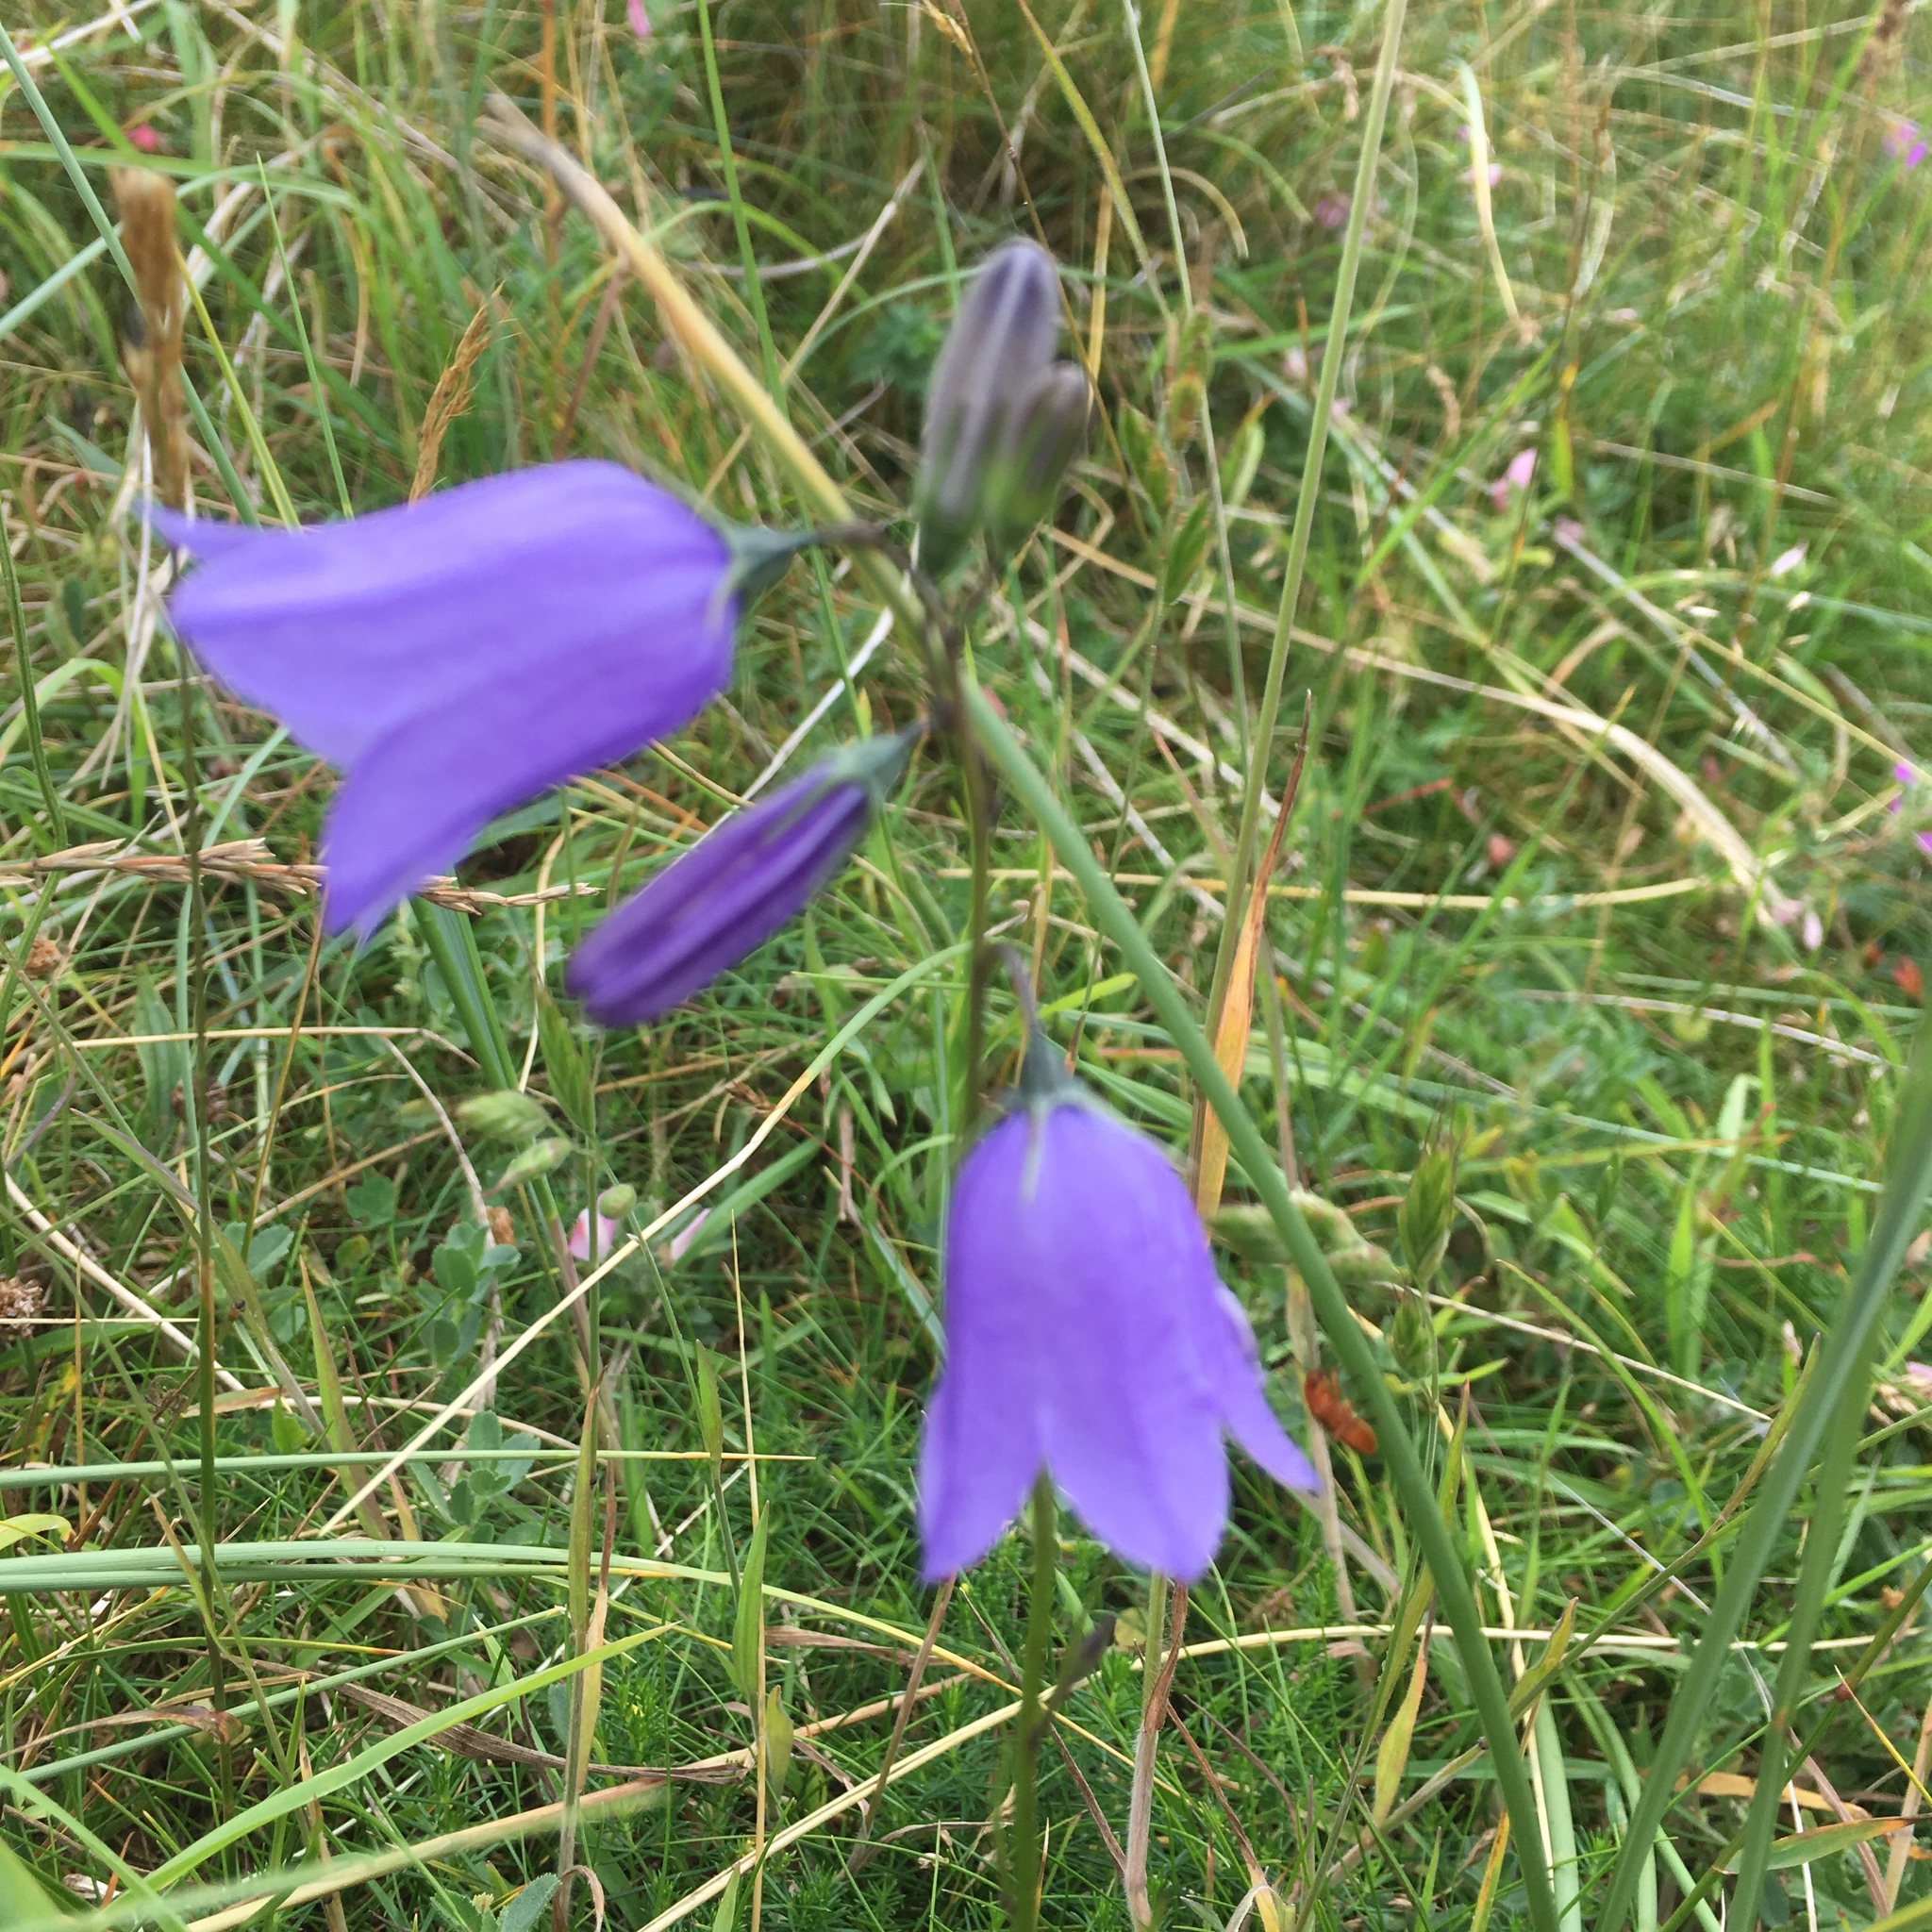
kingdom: Plantae
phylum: Tracheophyta
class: Magnoliopsida
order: Asterales
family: Campanulaceae
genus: Campanula
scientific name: Campanula rotundifolia
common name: Harebell
